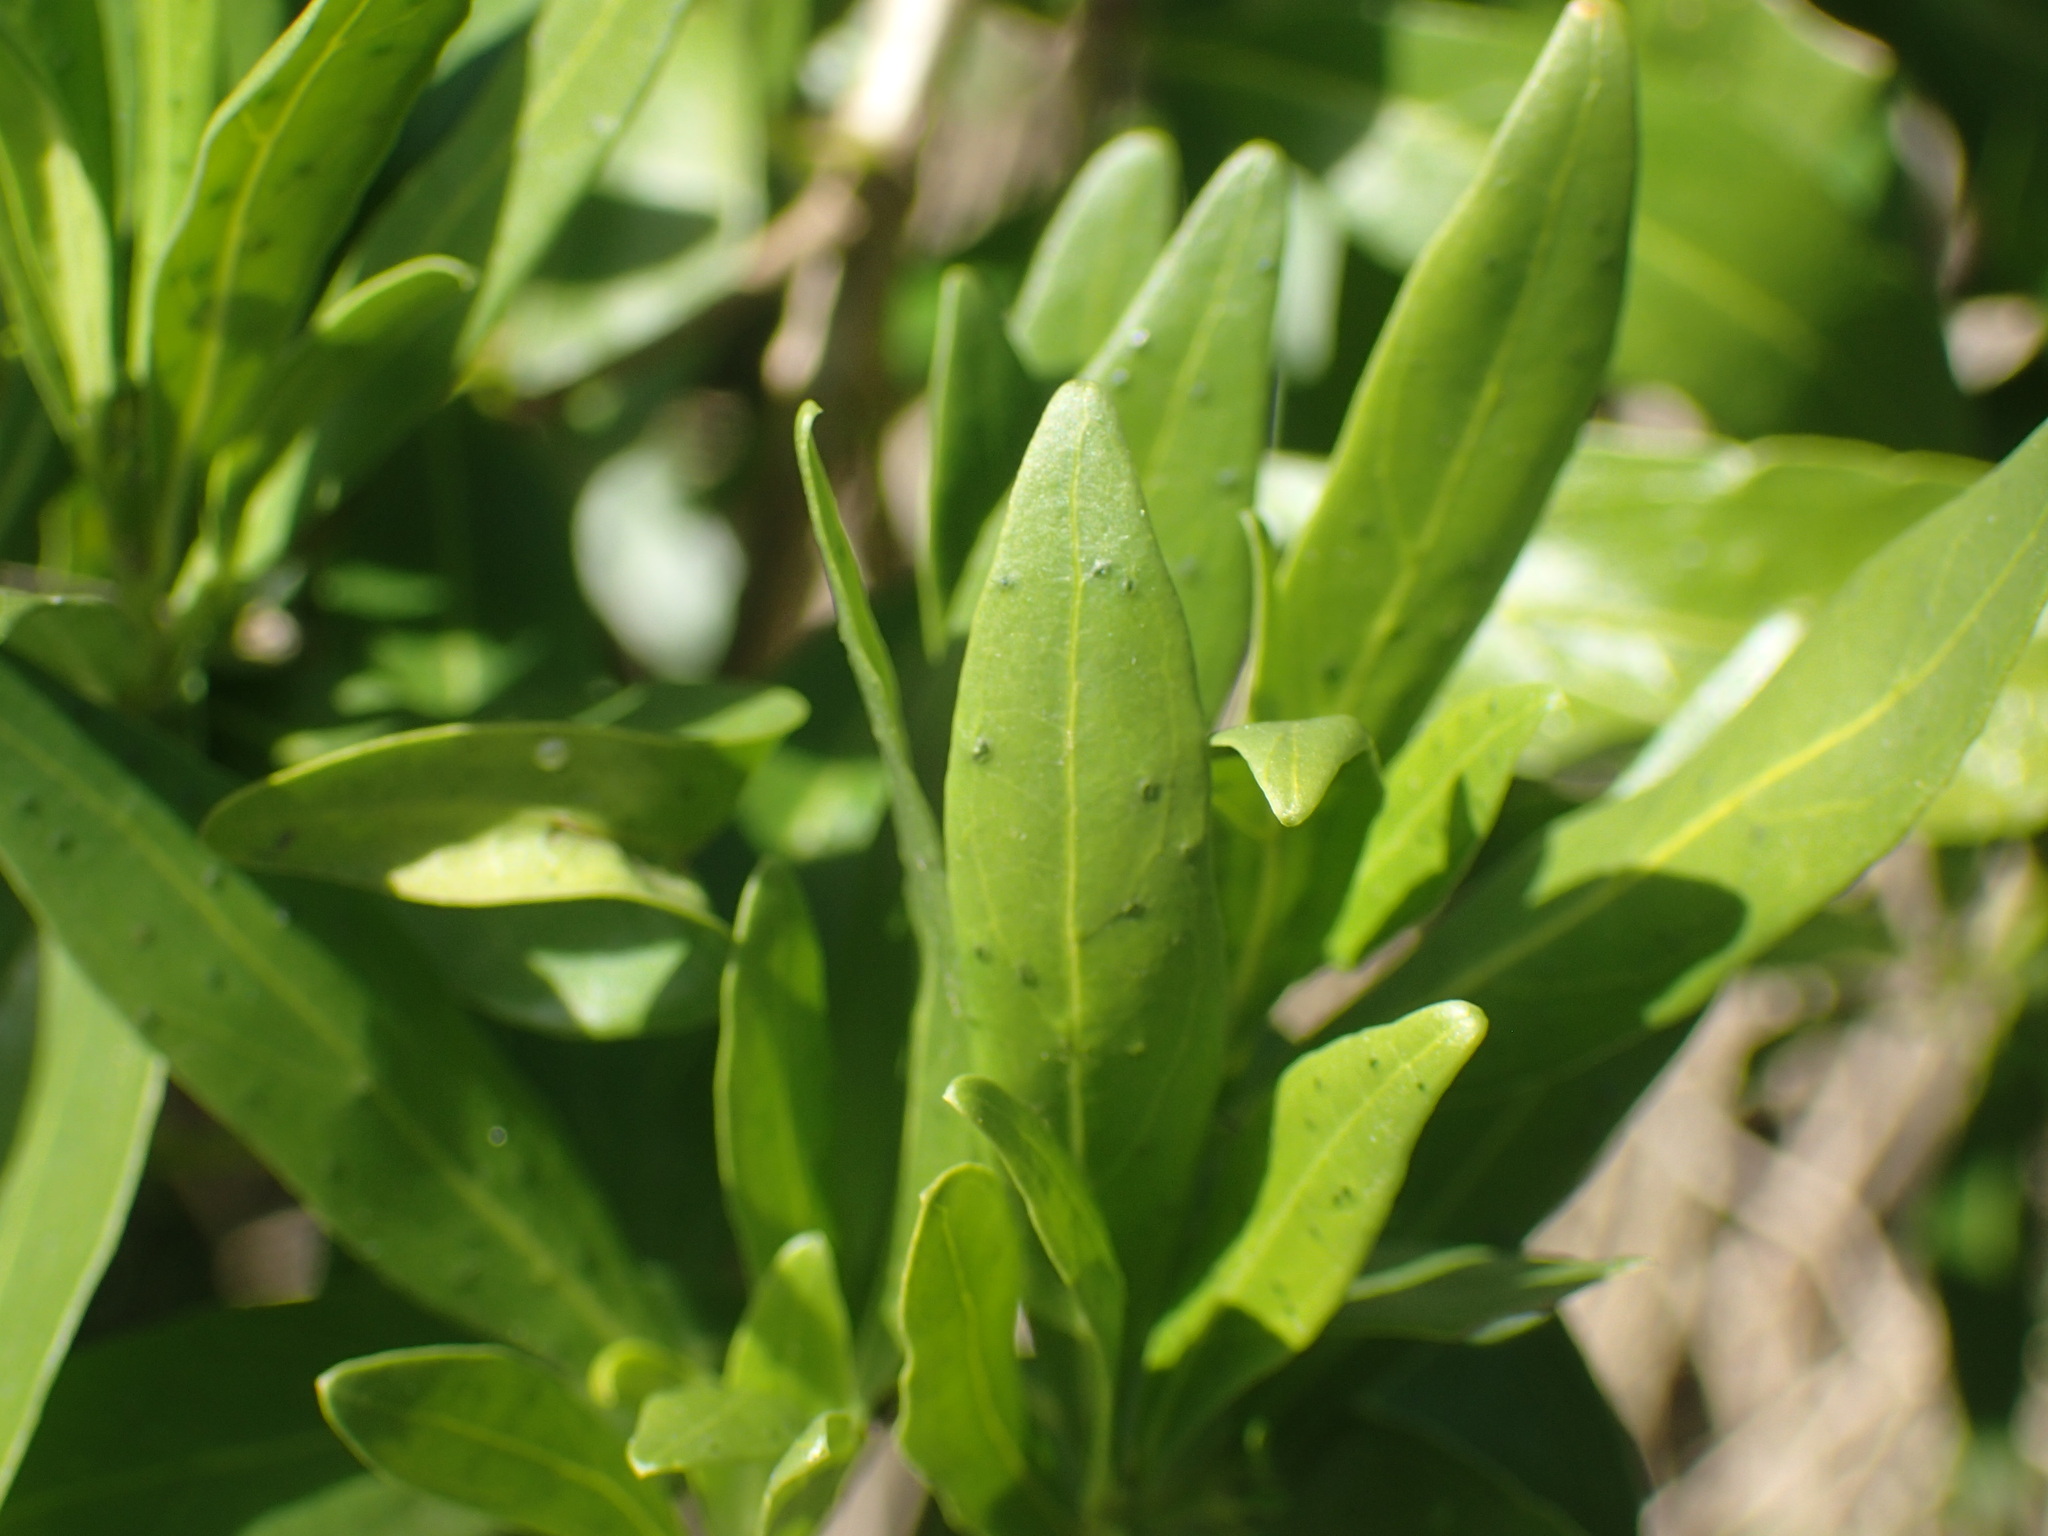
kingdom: Plantae
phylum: Tracheophyta
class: Magnoliopsida
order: Gentianales
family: Rubiaceae
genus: Pavetta
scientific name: Pavetta lanceolata
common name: Weeping brides-bush
